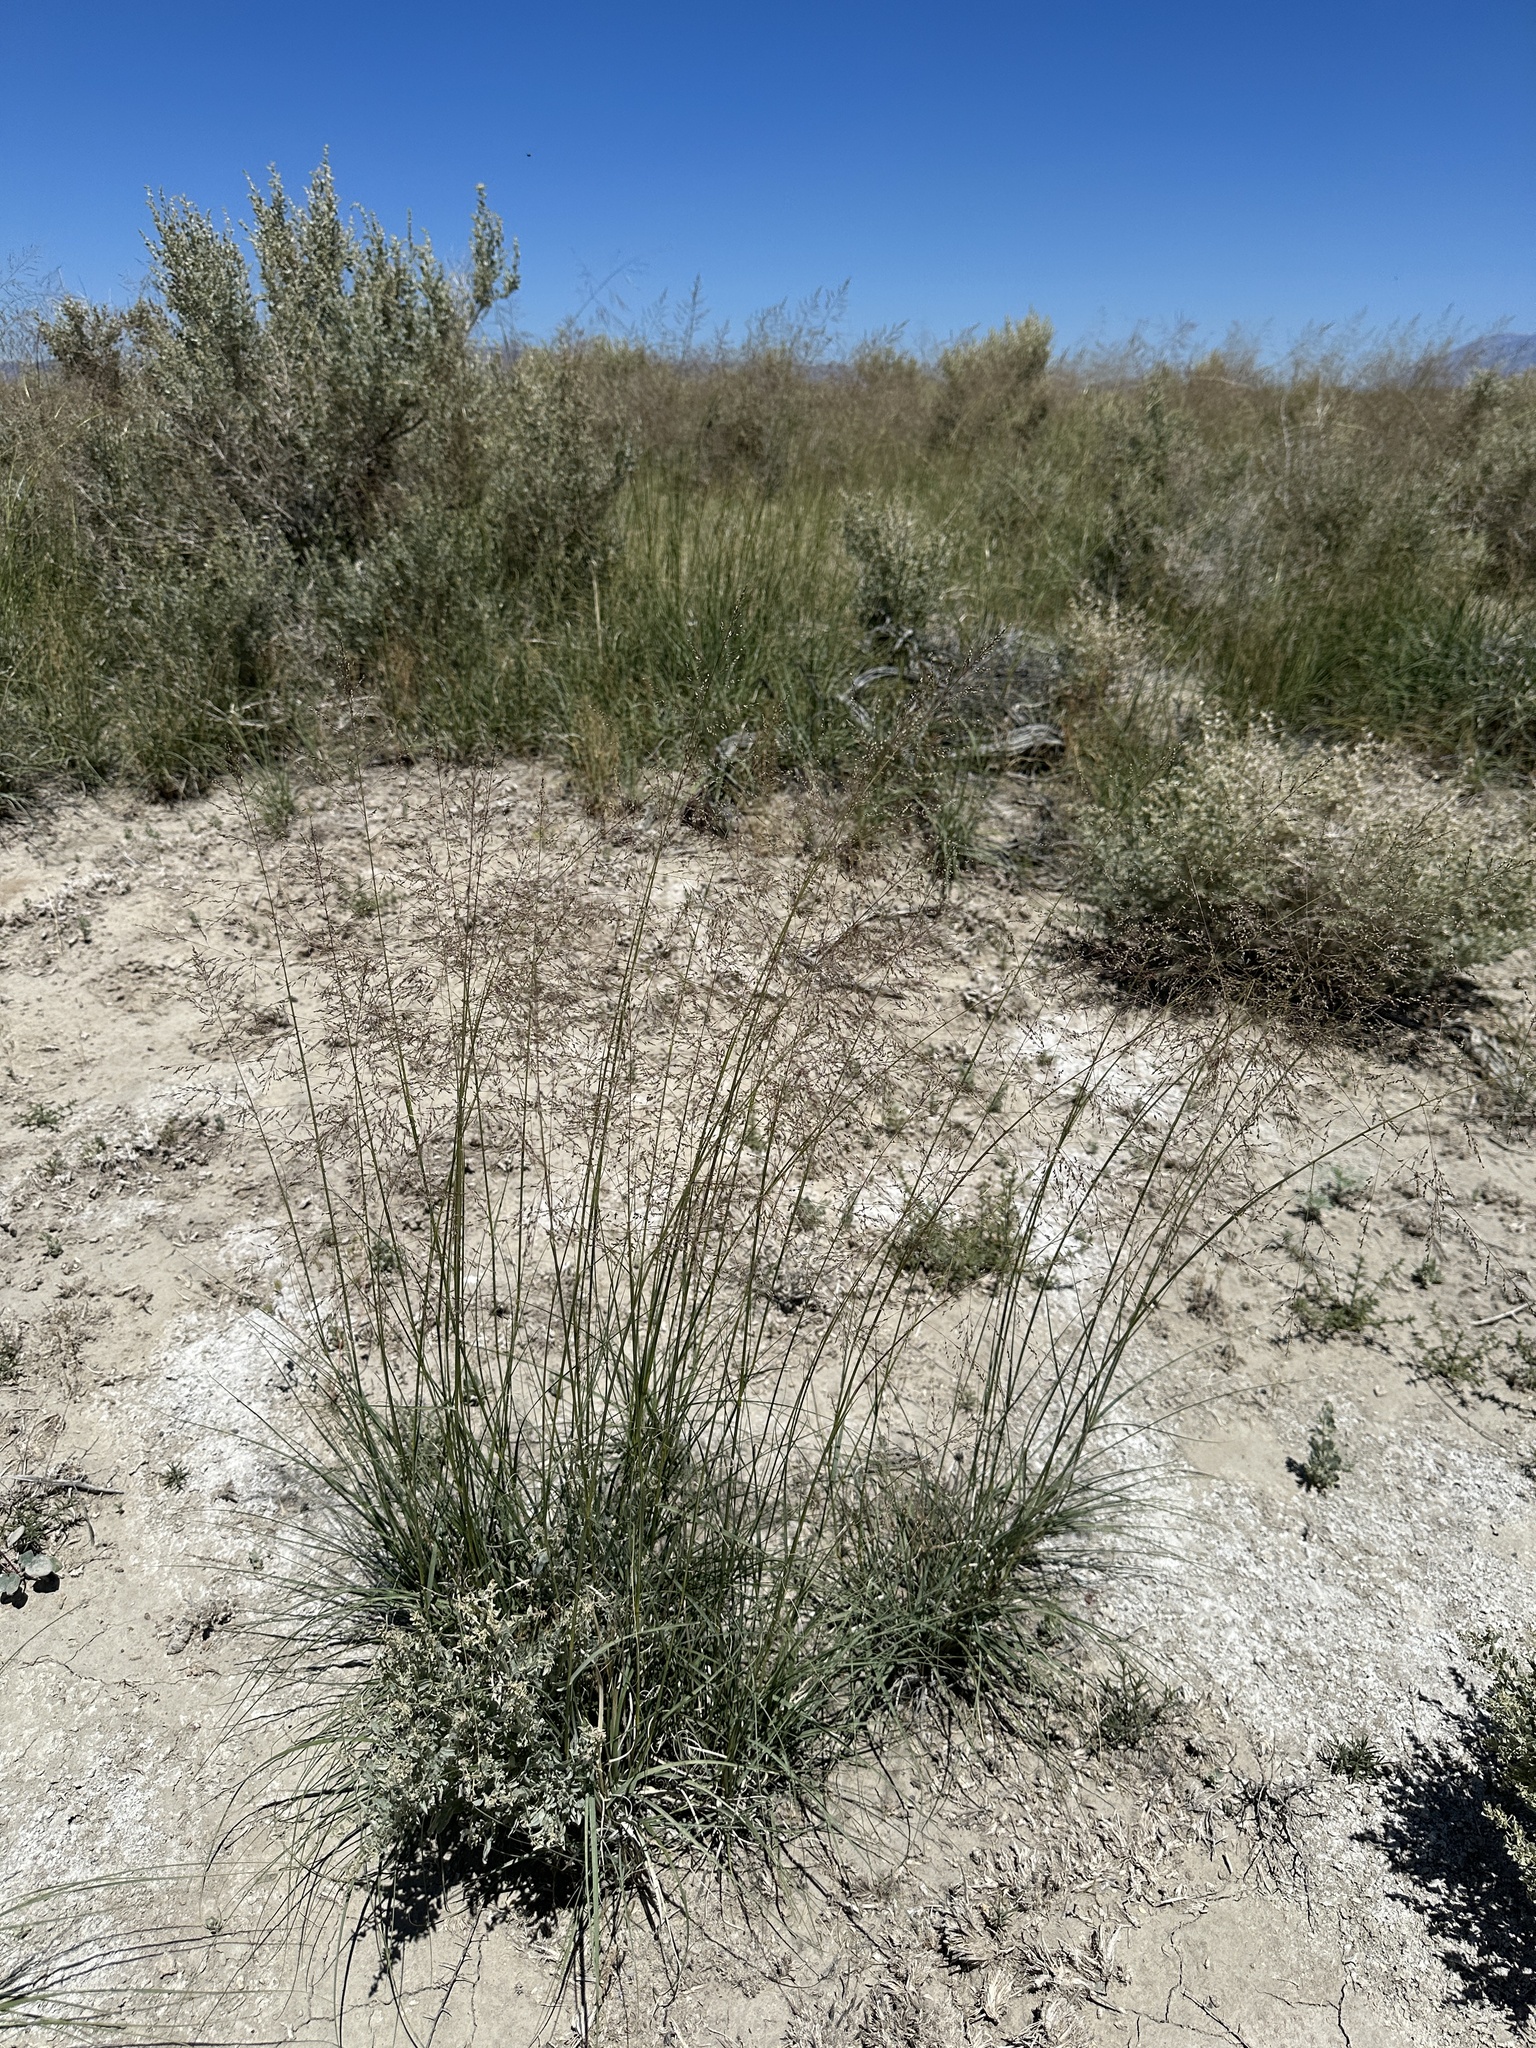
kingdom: Plantae
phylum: Tracheophyta
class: Liliopsida
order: Poales
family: Poaceae
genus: Sporobolus
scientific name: Sporobolus airoides
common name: Alkali sacaton
